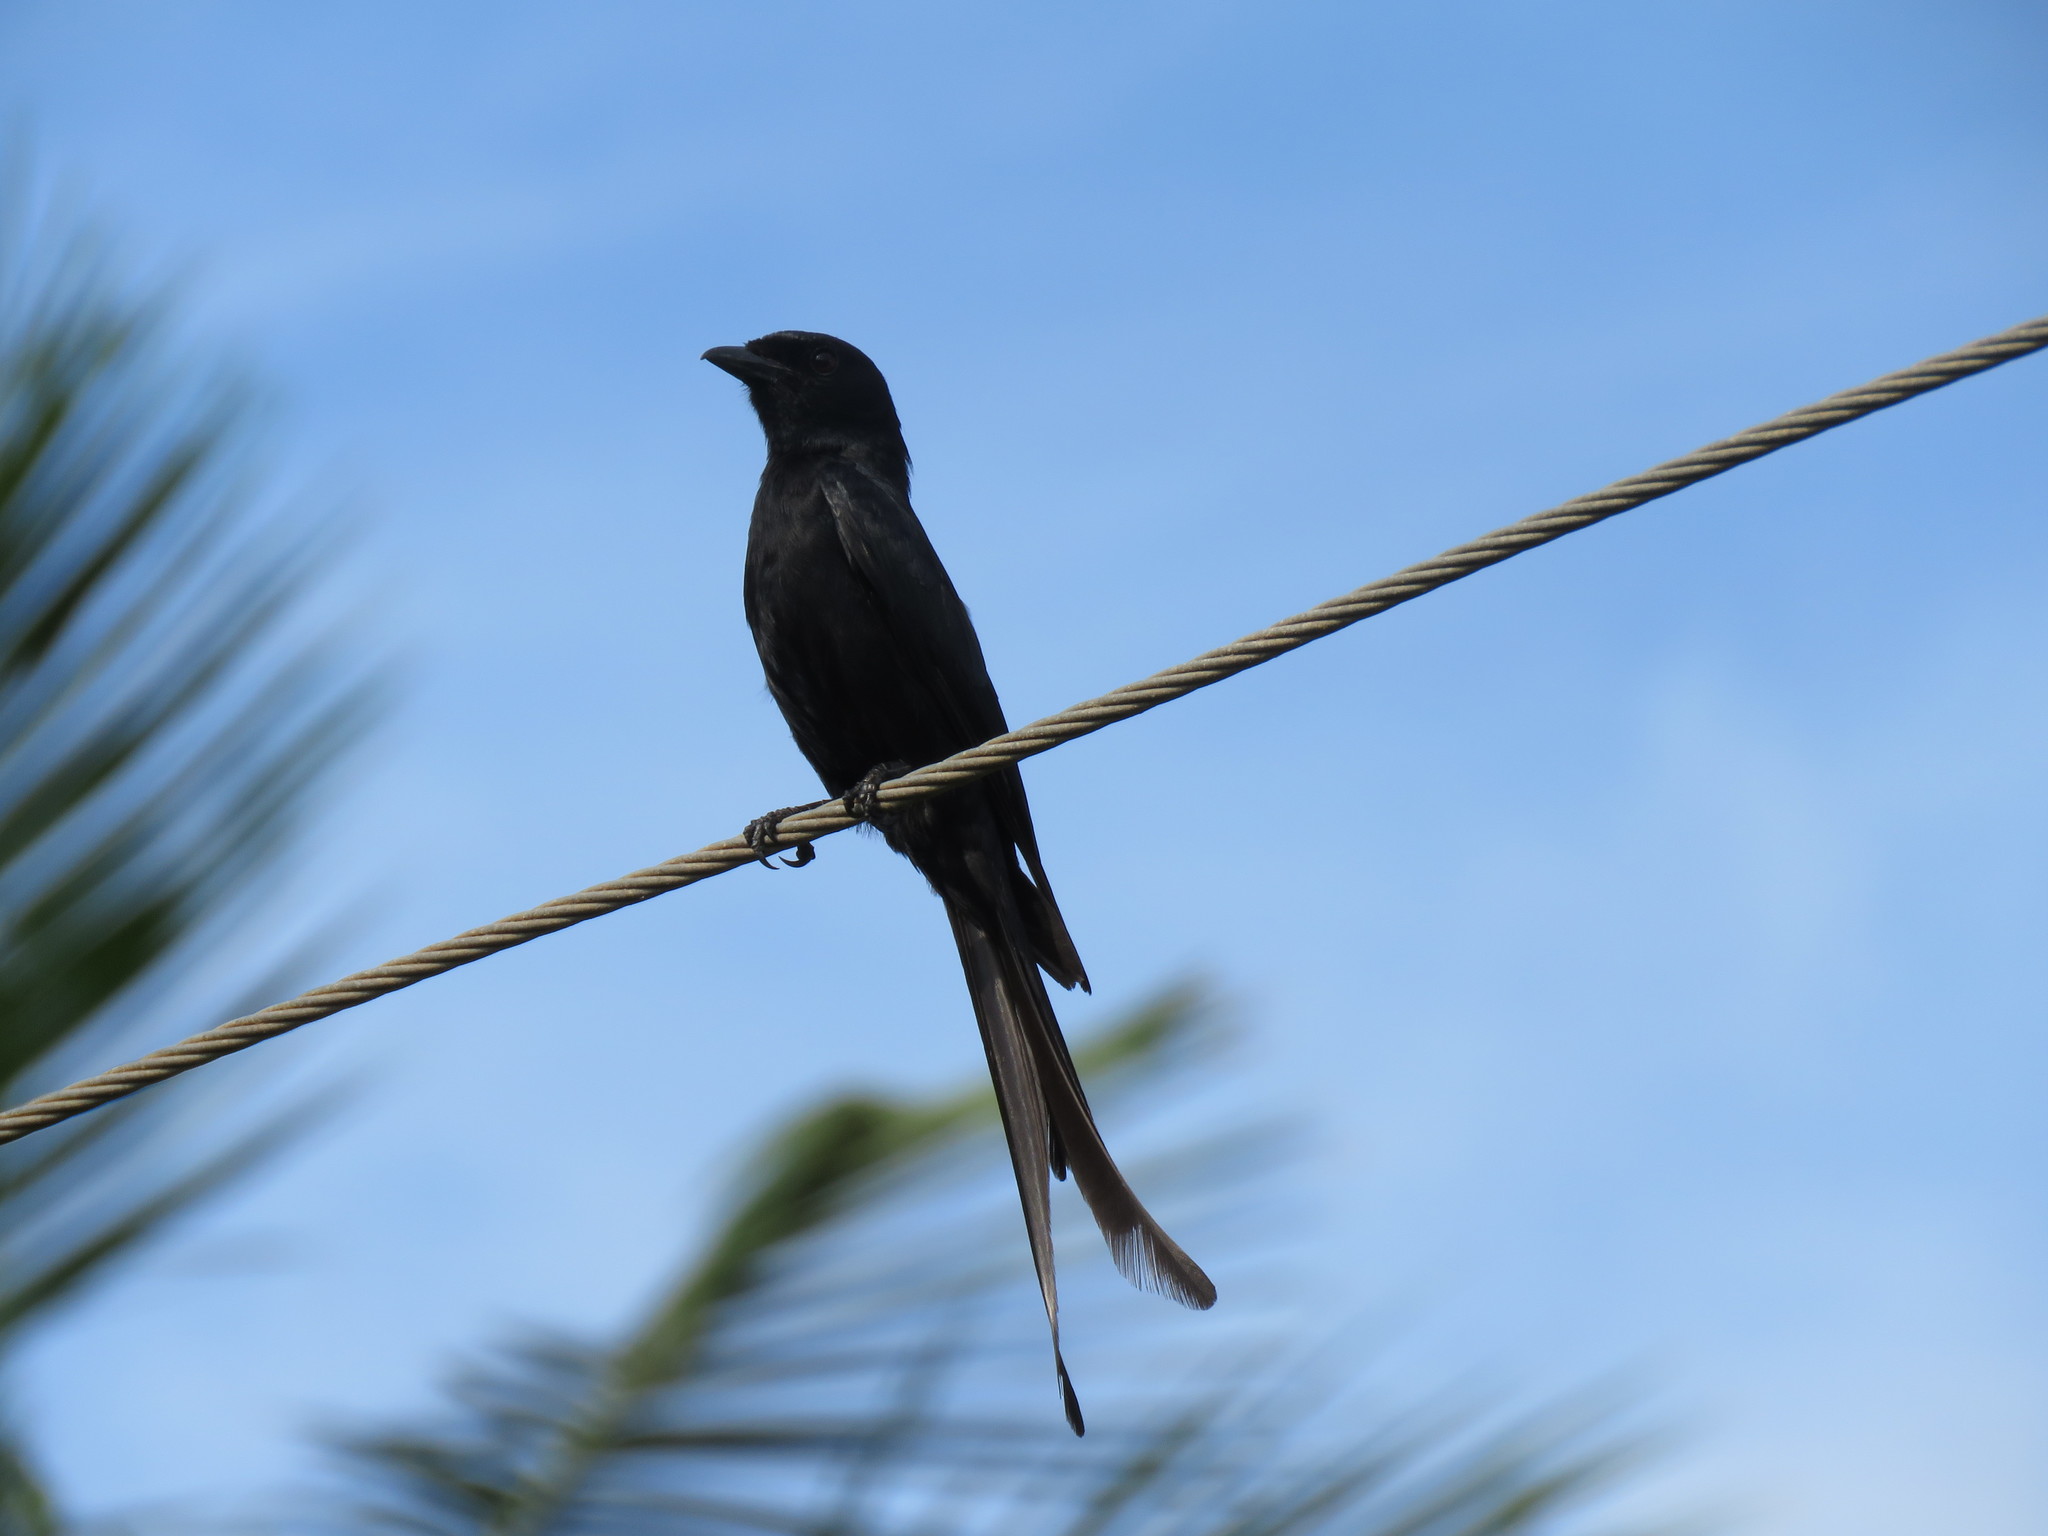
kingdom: Animalia
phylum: Chordata
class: Aves
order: Passeriformes
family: Dicruridae
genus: Dicrurus
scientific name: Dicrurus macrocercus
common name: Black drongo
